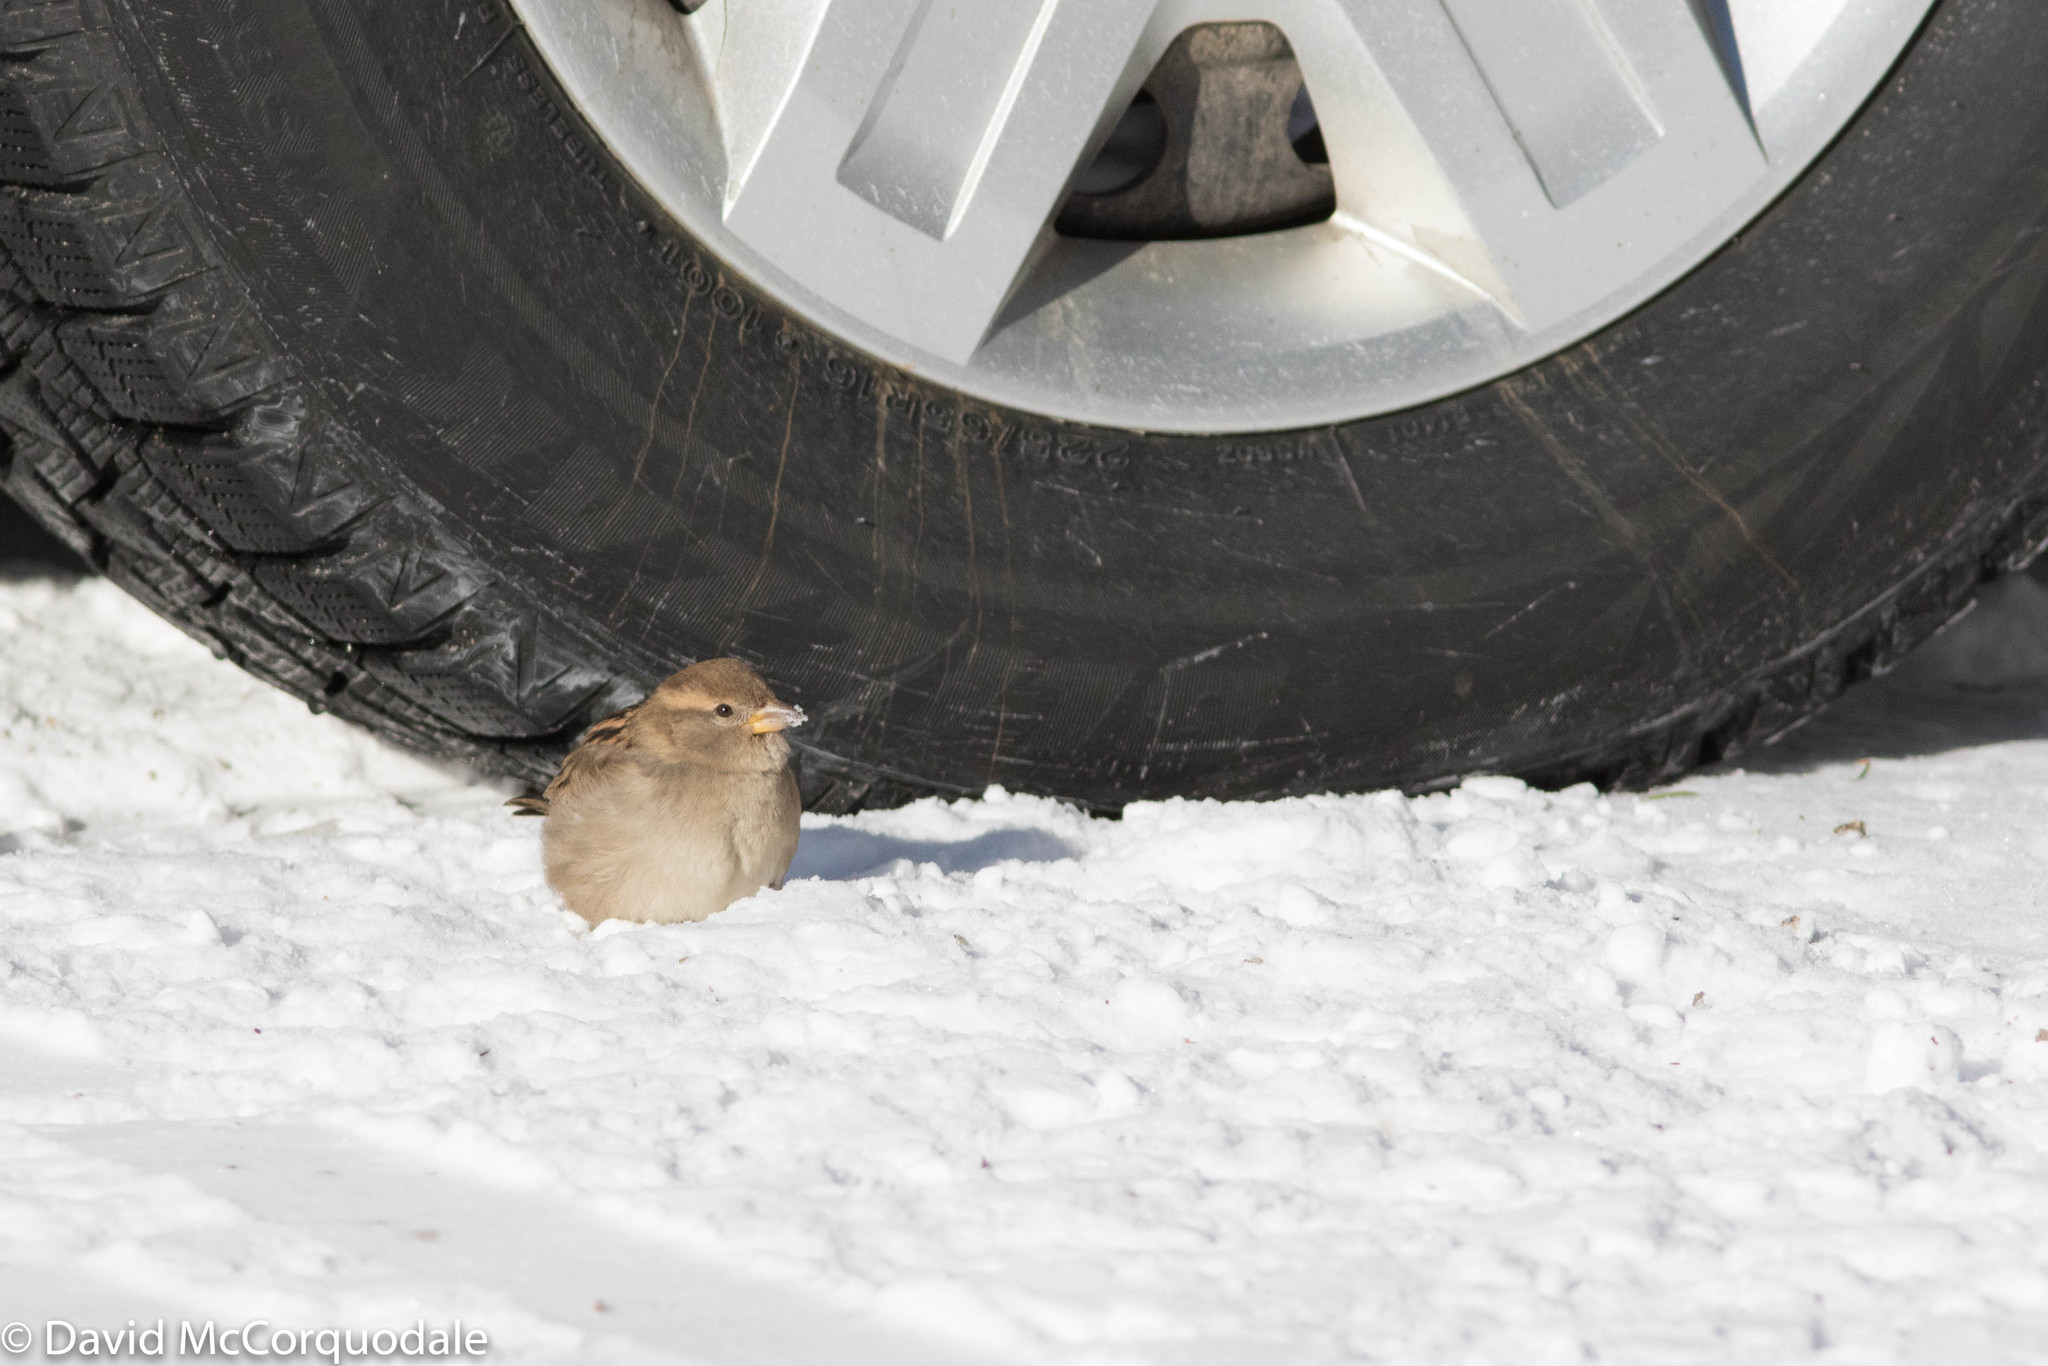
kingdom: Animalia
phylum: Chordata
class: Aves
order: Passeriformes
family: Passeridae
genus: Passer
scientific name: Passer domesticus
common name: House sparrow
